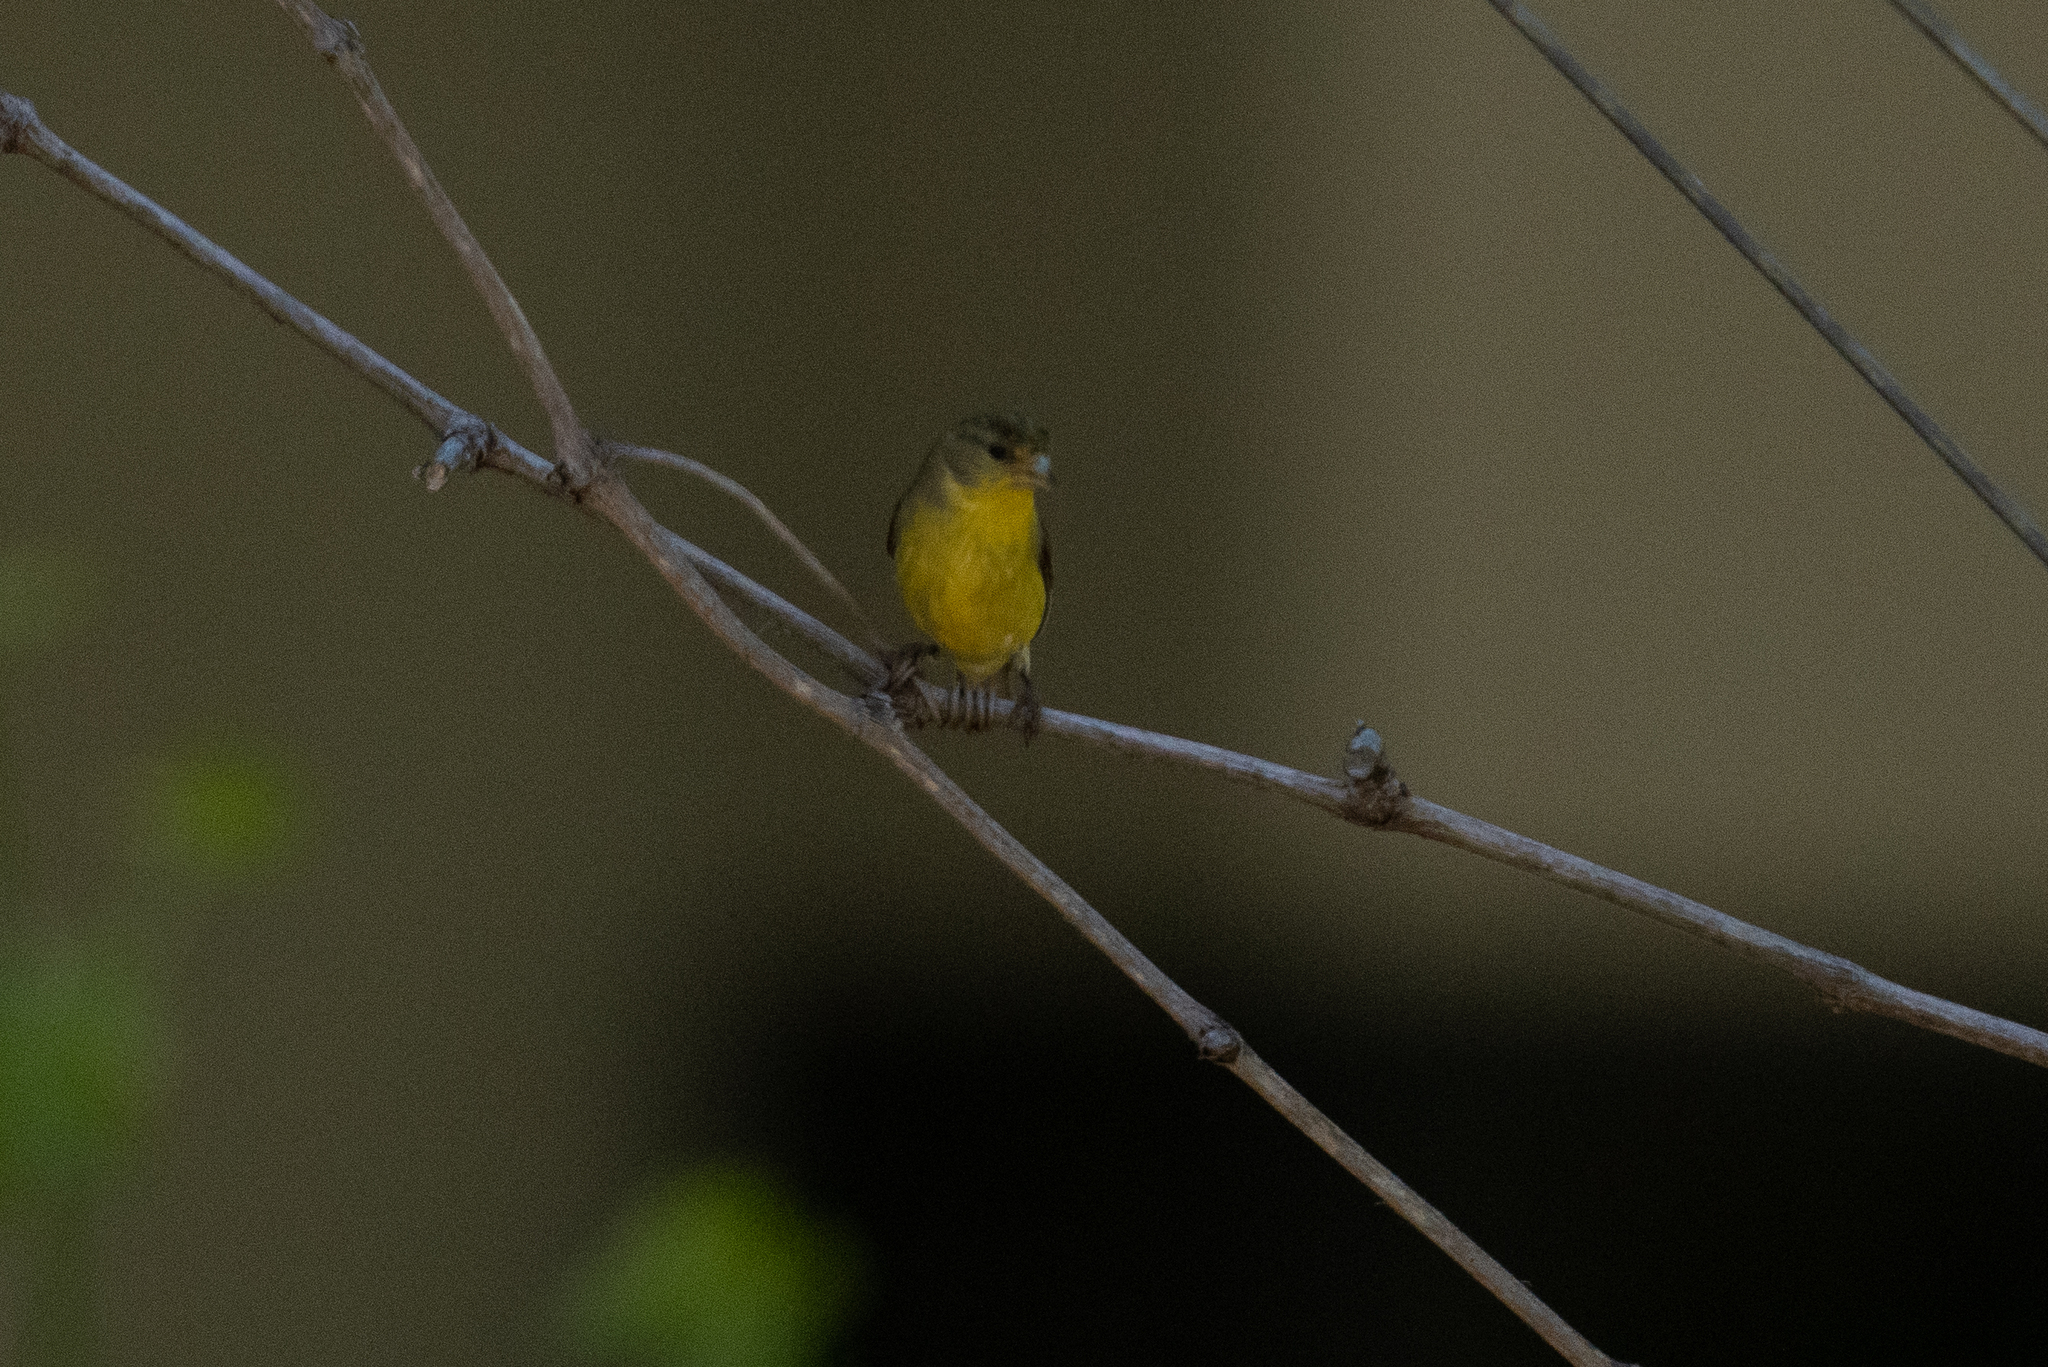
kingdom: Animalia
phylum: Chordata
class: Aves
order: Passeriformes
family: Fringillidae
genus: Spinus
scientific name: Spinus psaltria
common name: Lesser goldfinch
